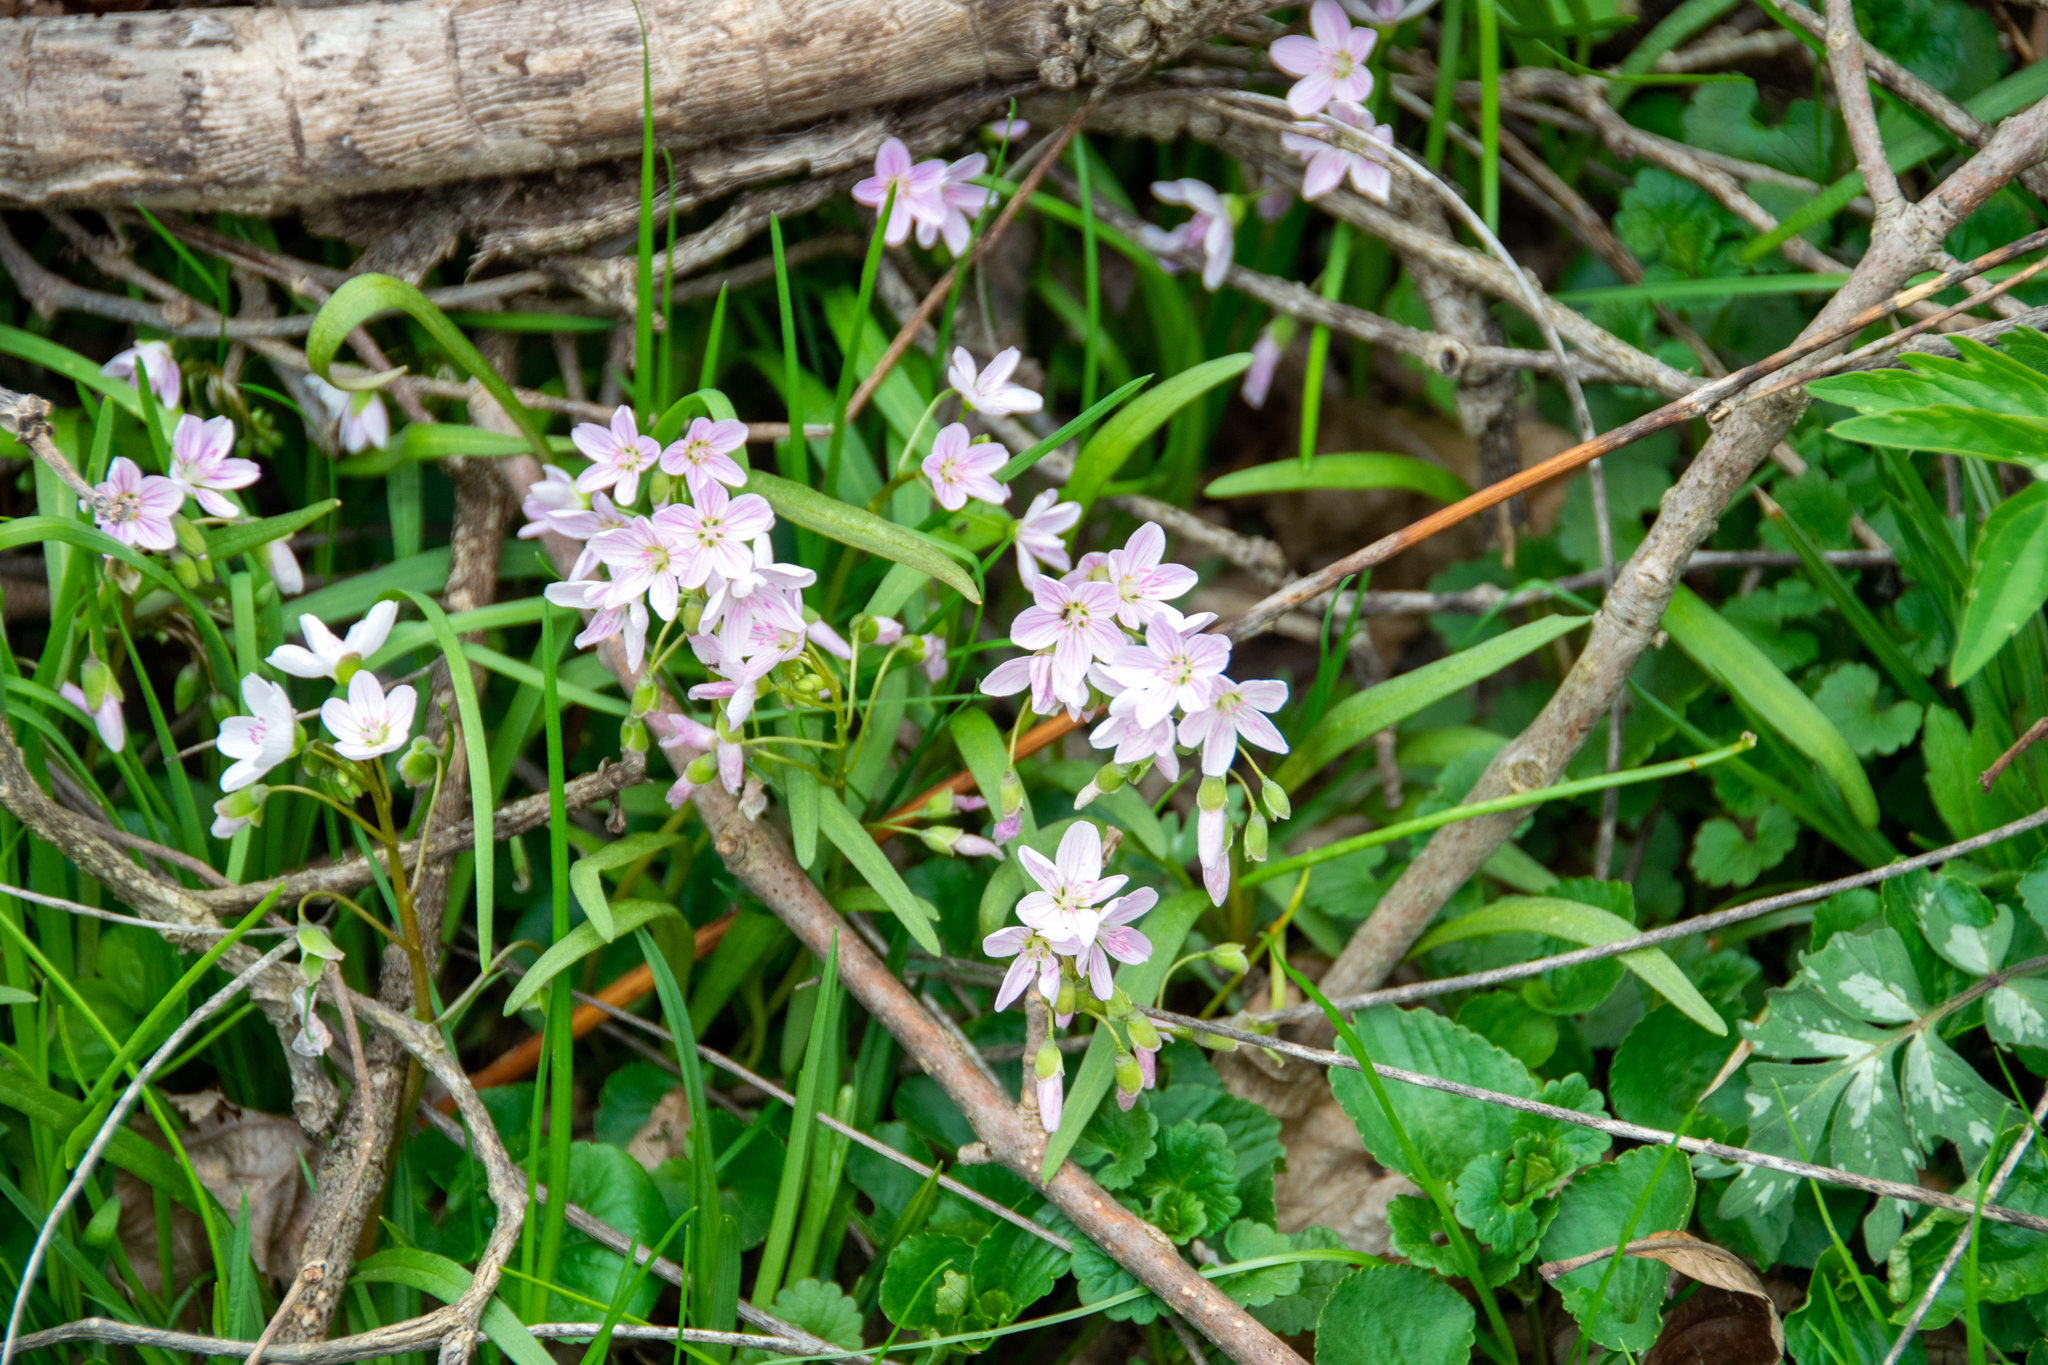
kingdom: Plantae
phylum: Tracheophyta
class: Magnoliopsida
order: Caryophyllales
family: Montiaceae
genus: Claytonia
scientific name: Claytonia virginica
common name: Virginia springbeauty
